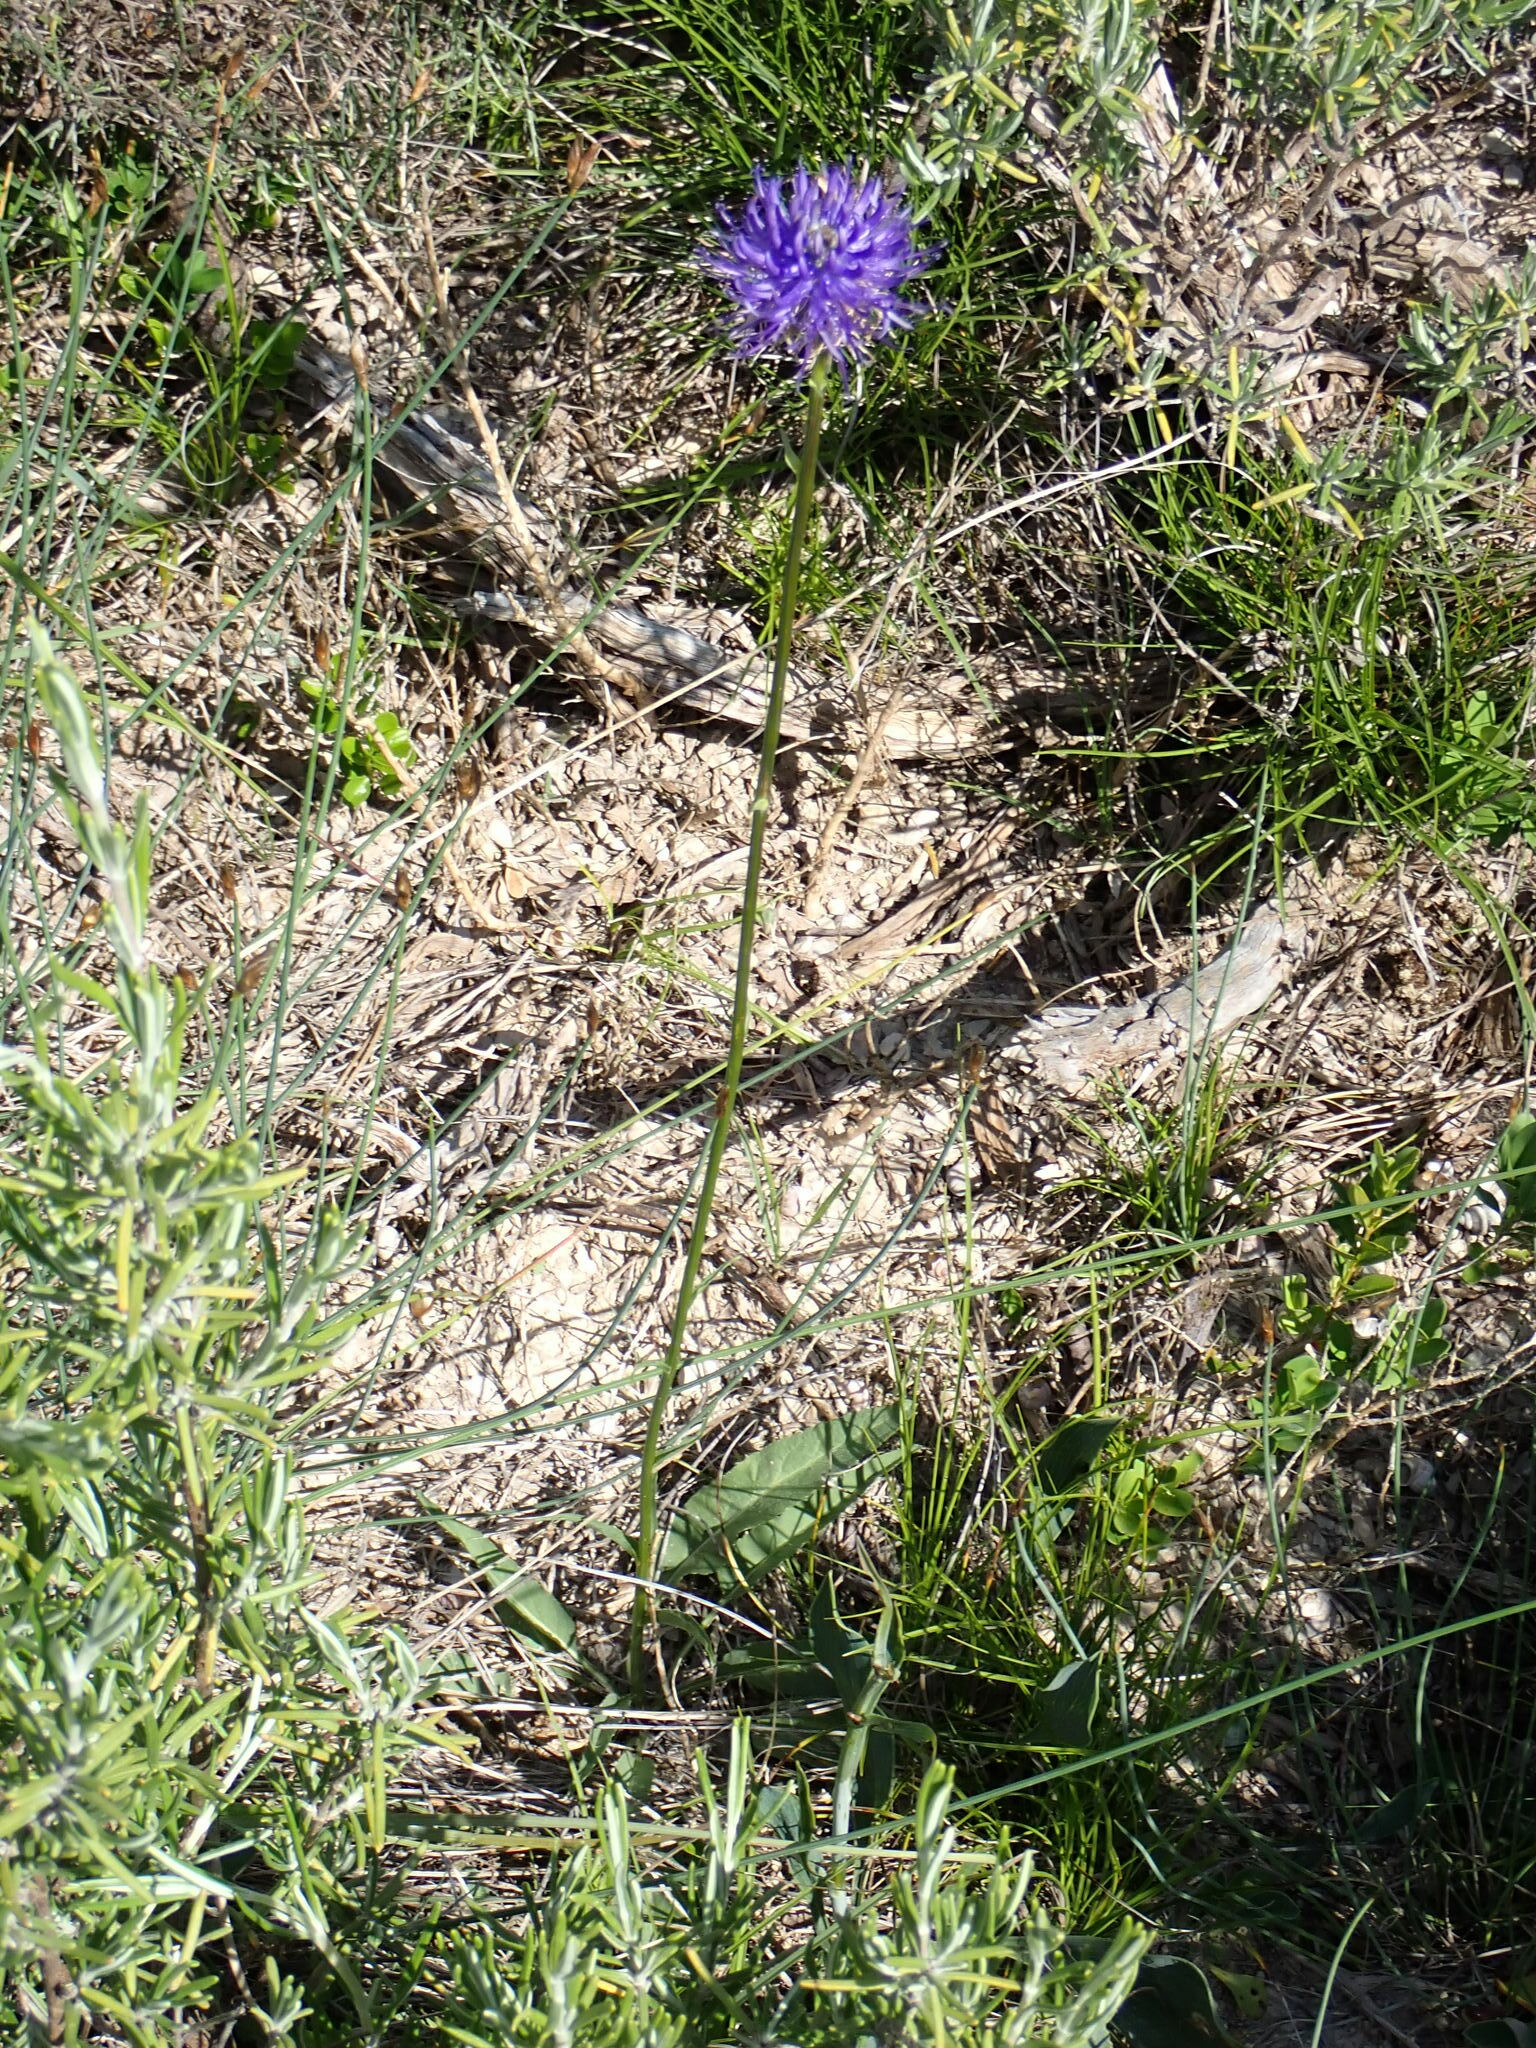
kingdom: Plantae
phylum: Tracheophyta
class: Magnoliopsida
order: Asterales
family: Campanulaceae
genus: Phyteuma
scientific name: Phyteuma orbiculare
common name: Round-headed rampion
